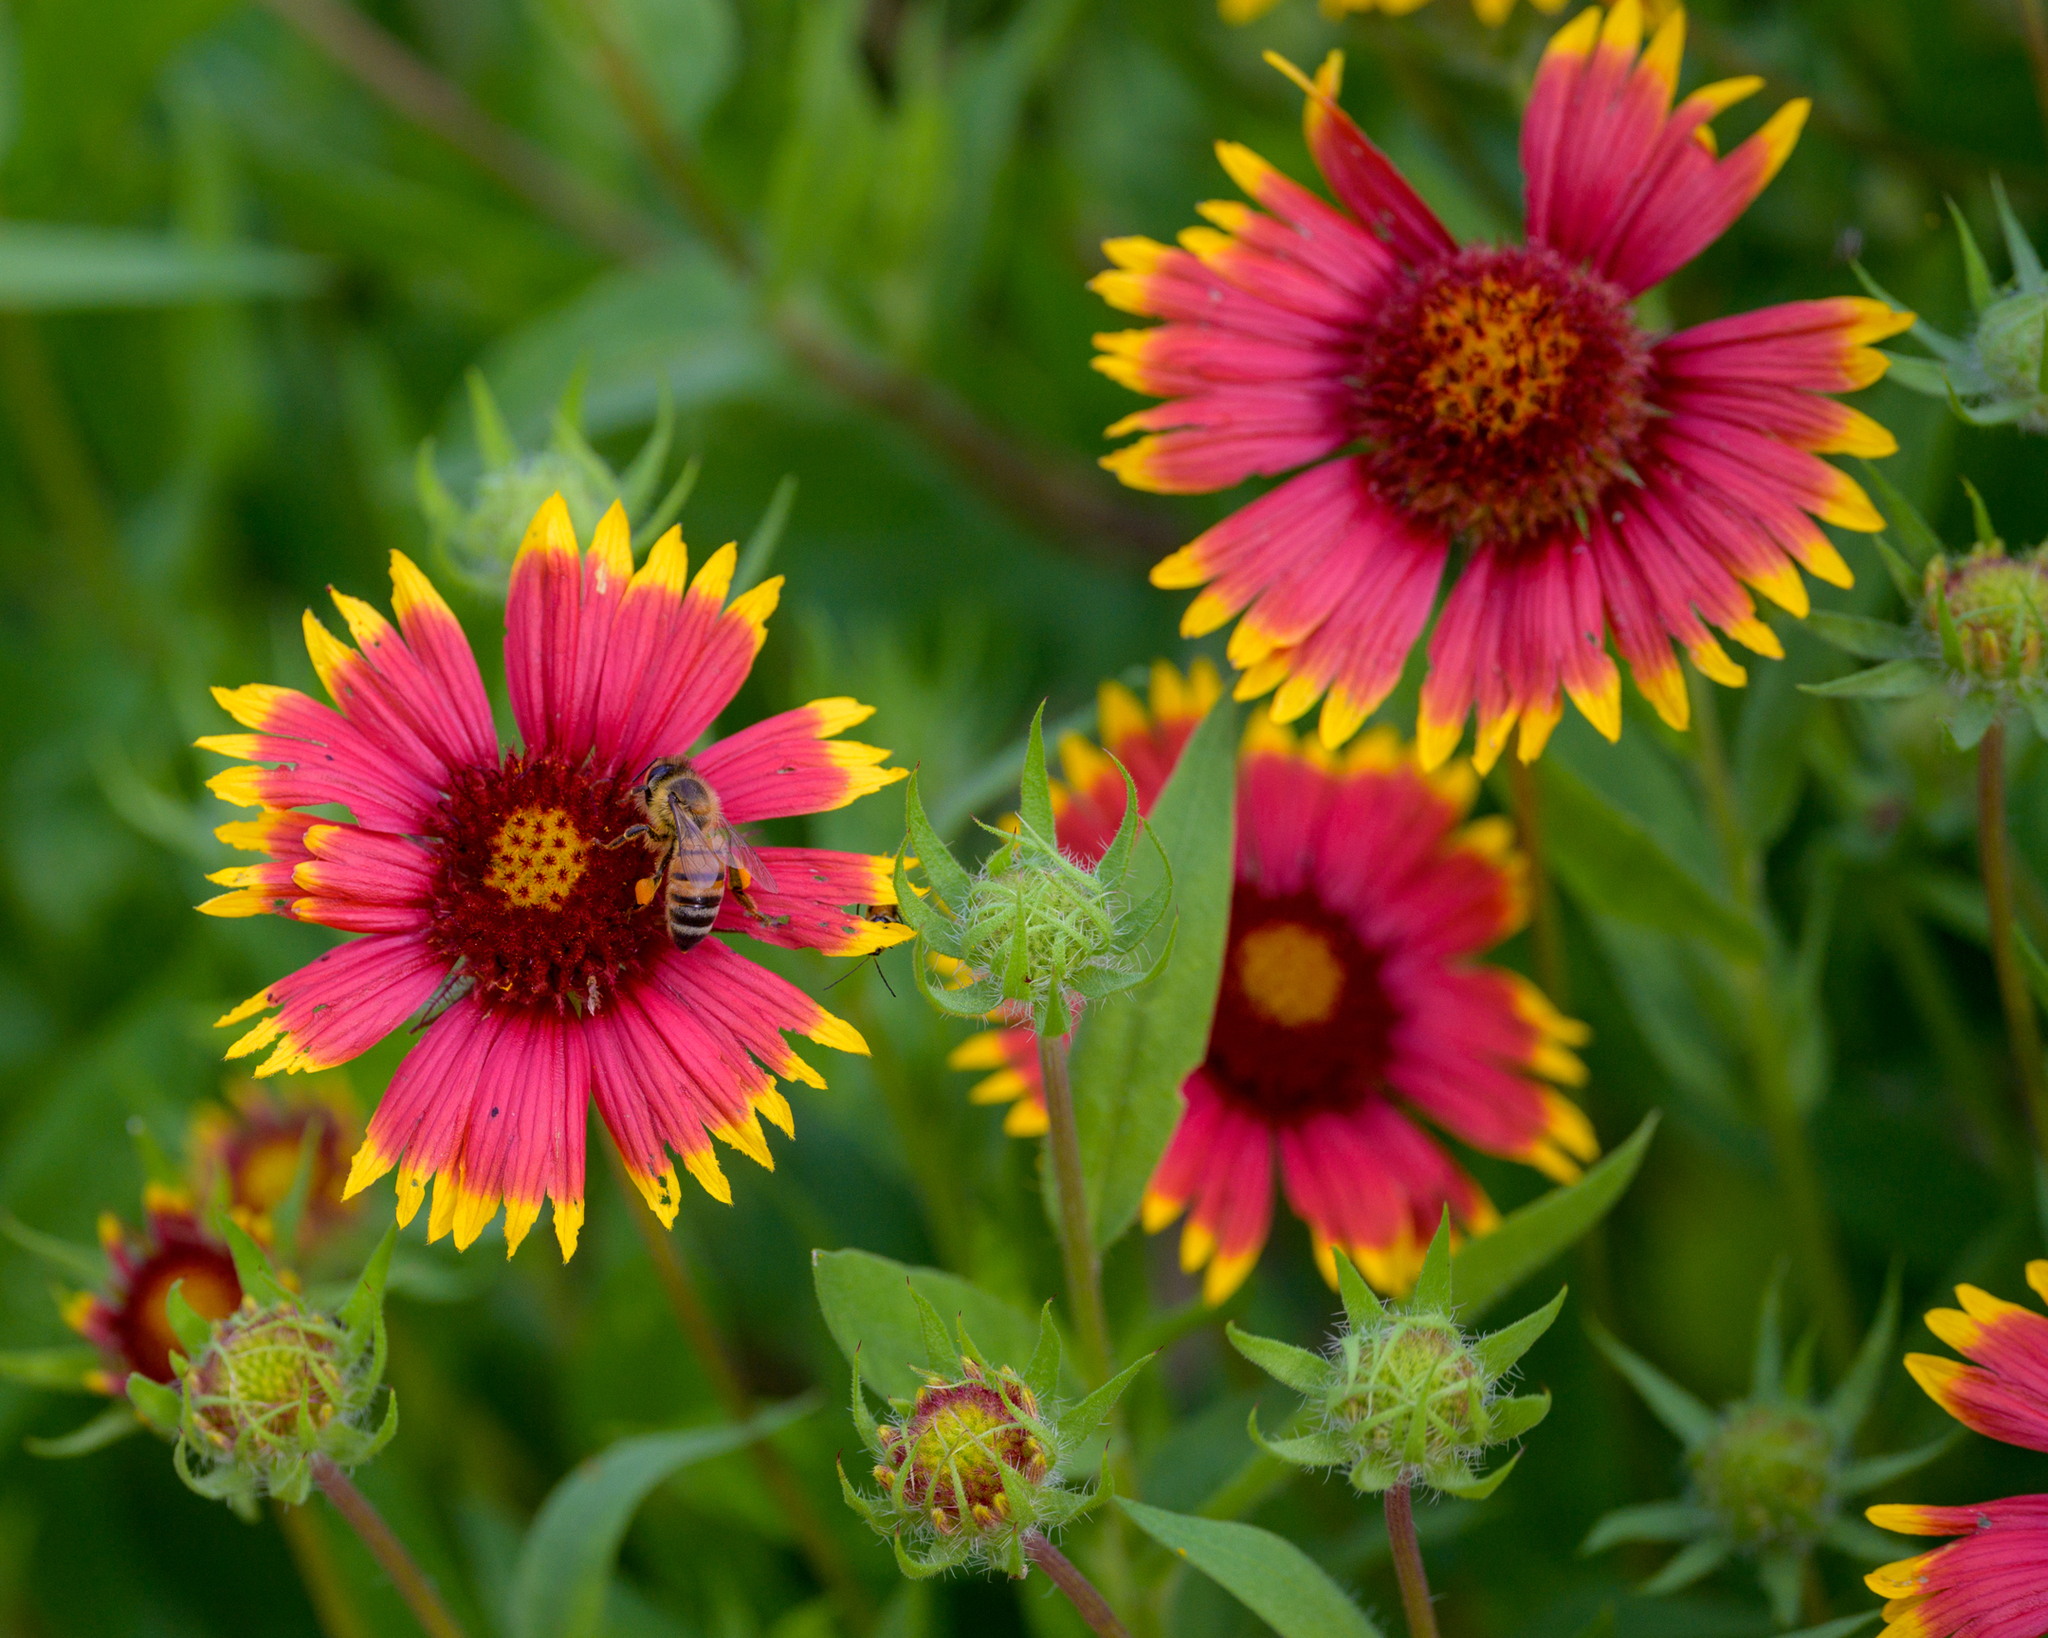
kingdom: Plantae
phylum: Tracheophyta
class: Magnoliopsida
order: Asterales
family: Asteraceae
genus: Gaillardia
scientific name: Gaillardia pulchella
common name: Firewheel
